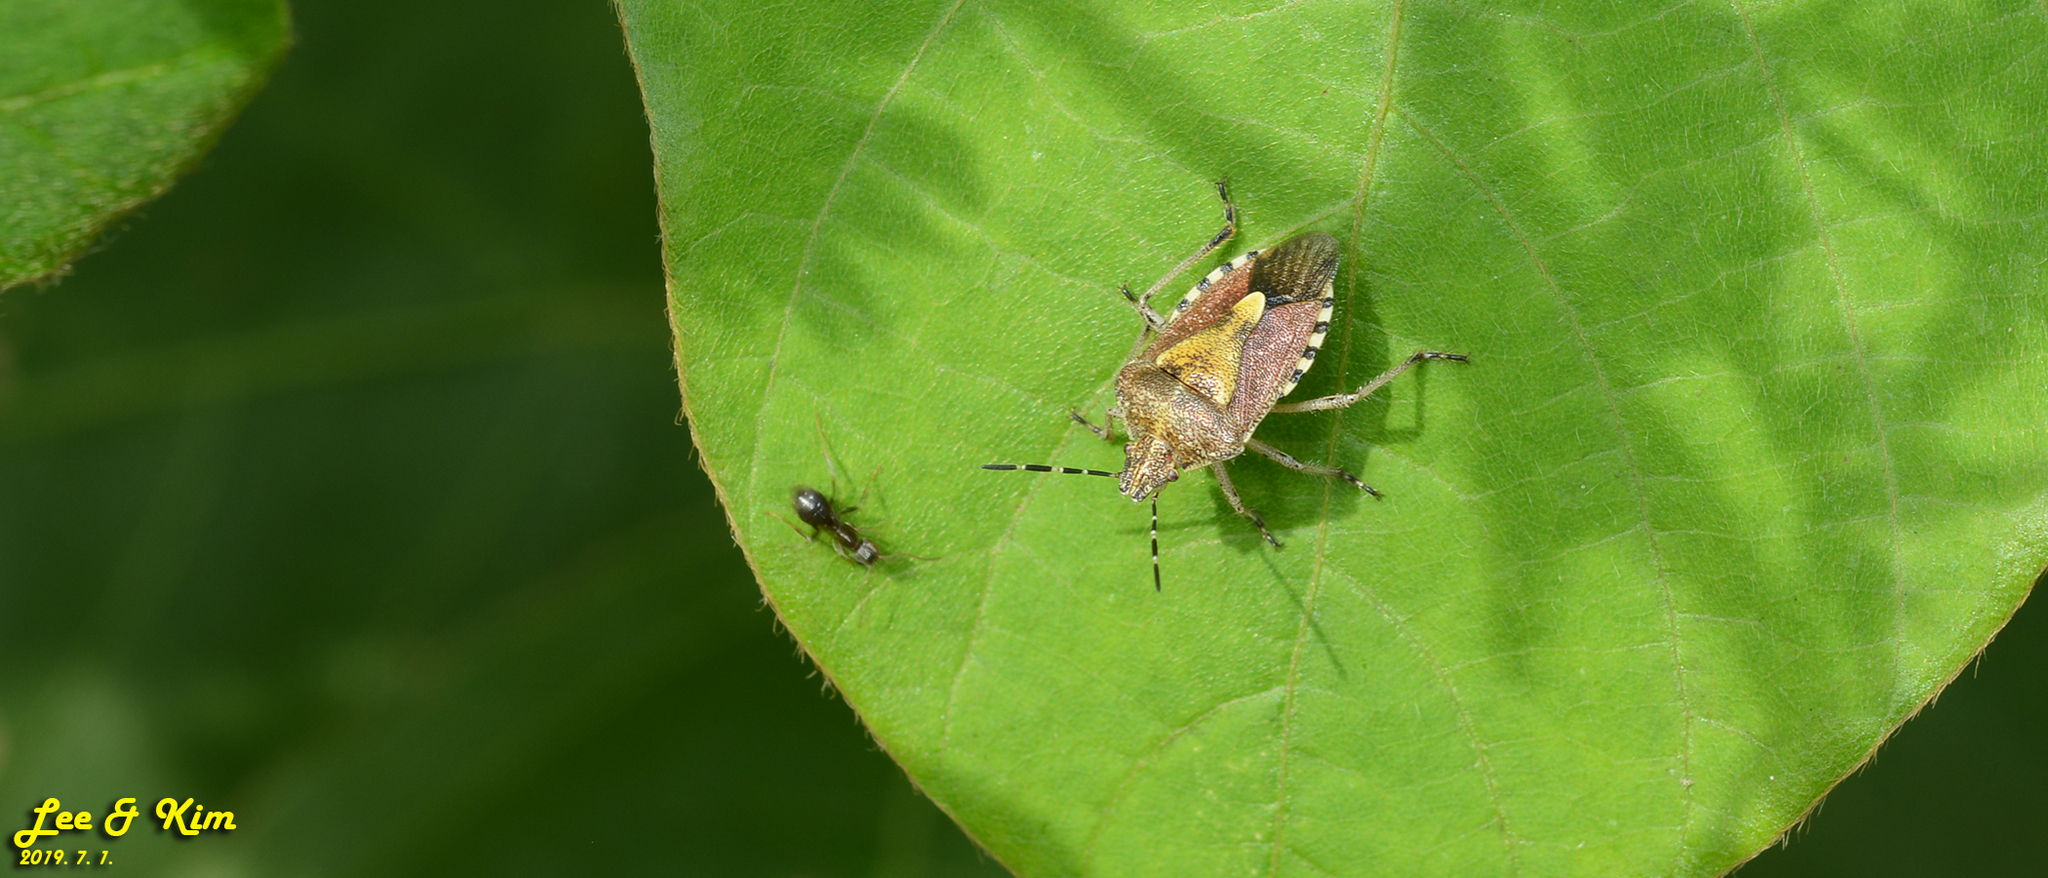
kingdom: Animalia
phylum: Arthropoda
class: Insecta
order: Hemiptera
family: Pentatomidae
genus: Dolycoris
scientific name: Dolycoris baccarum
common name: Sloe bug
